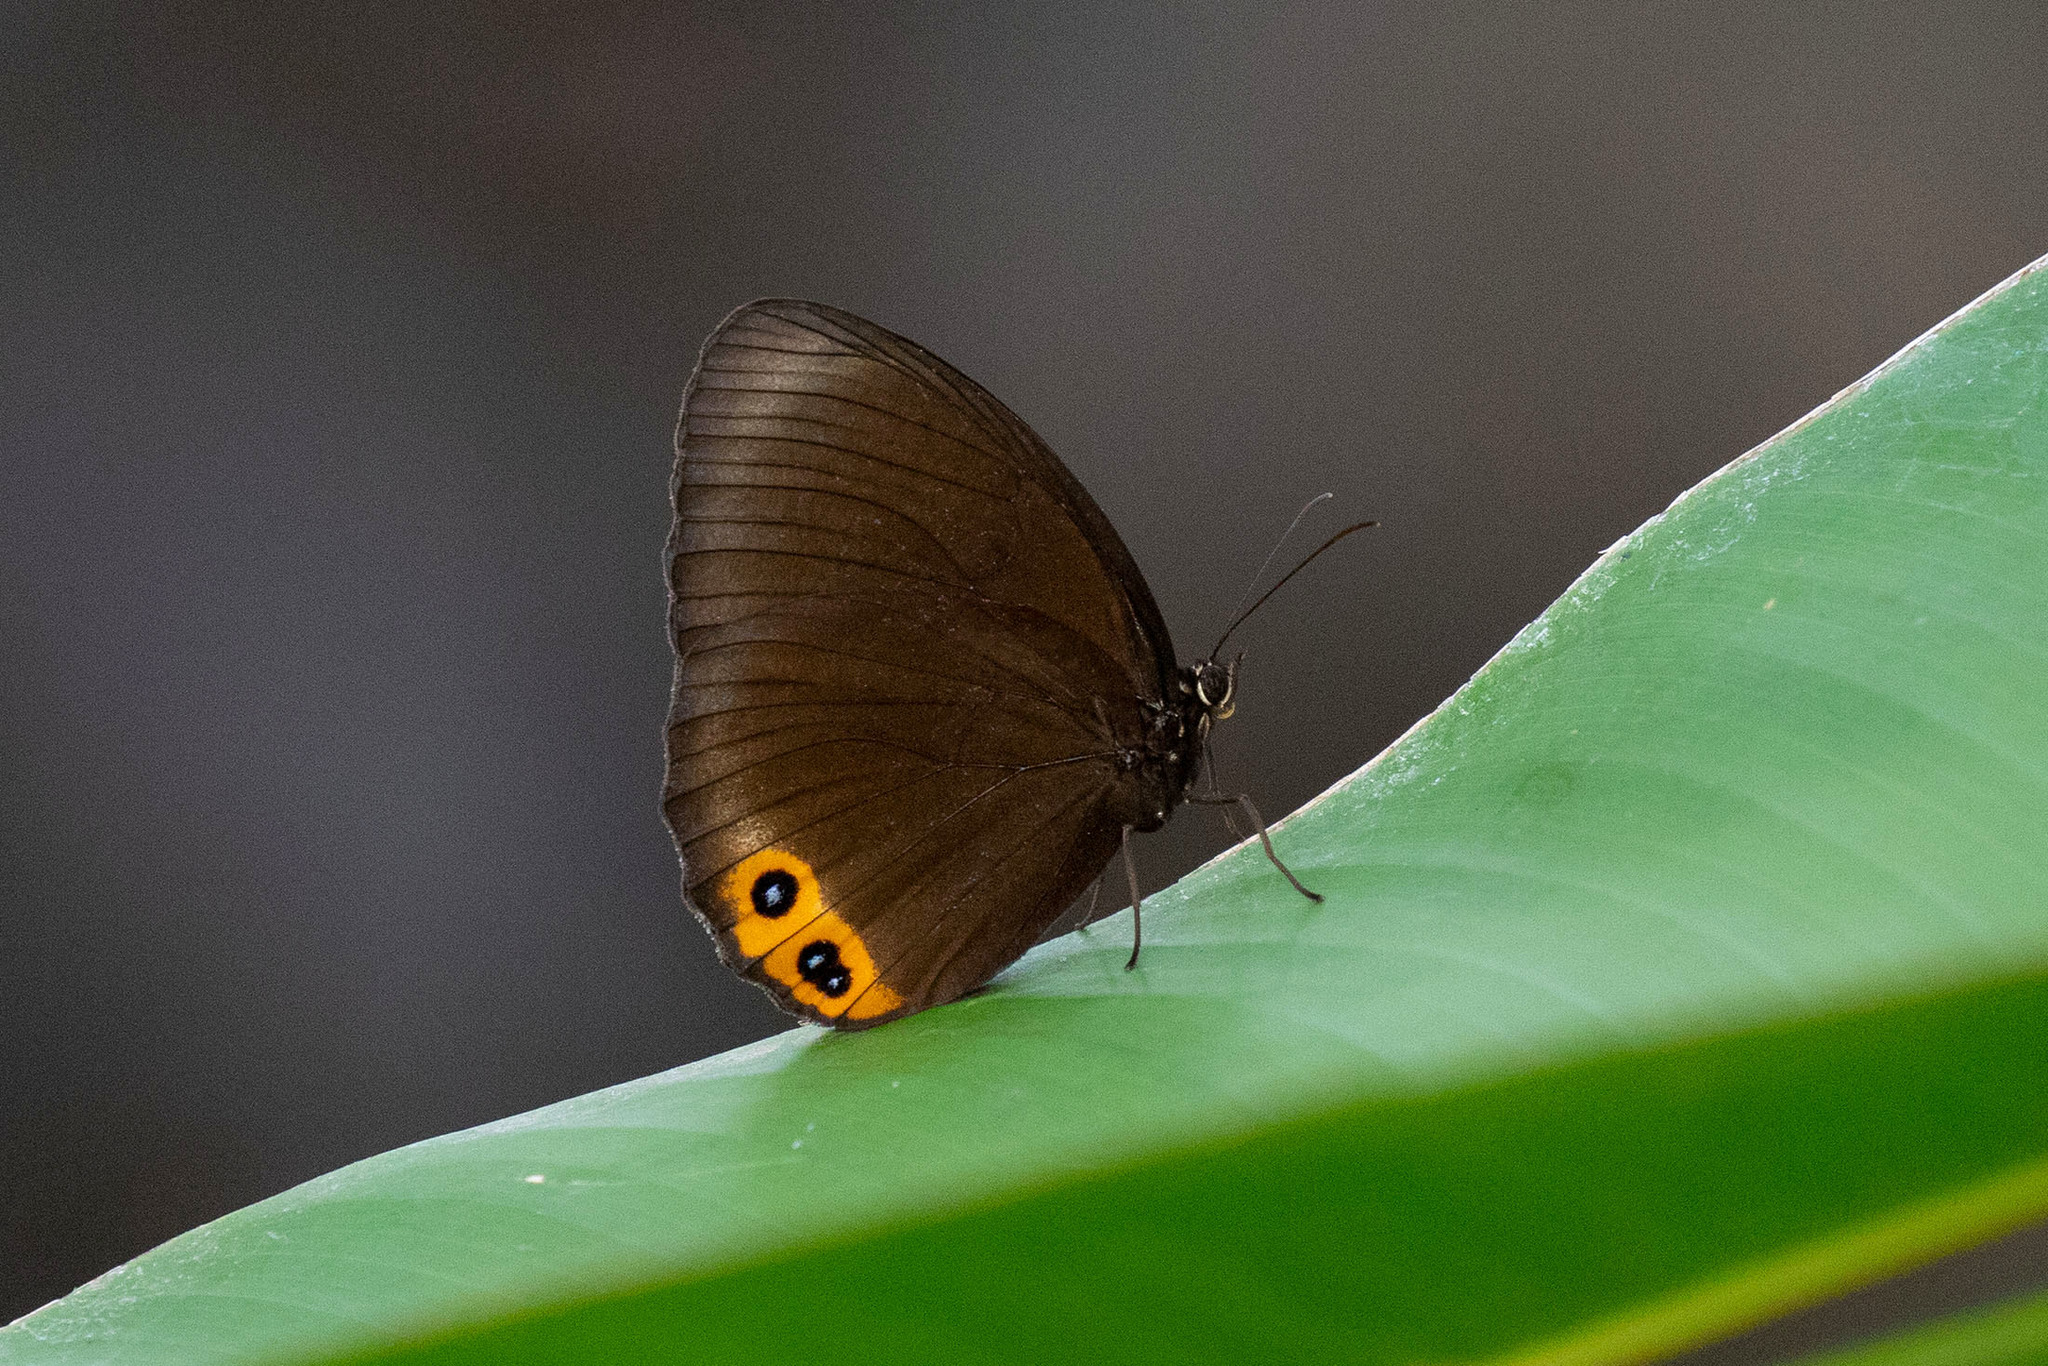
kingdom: Animalia
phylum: Arthropoda
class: Insecta
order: Lepidoptera
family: Nymphalidae
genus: Elymnias
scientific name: Elymnias agondas
